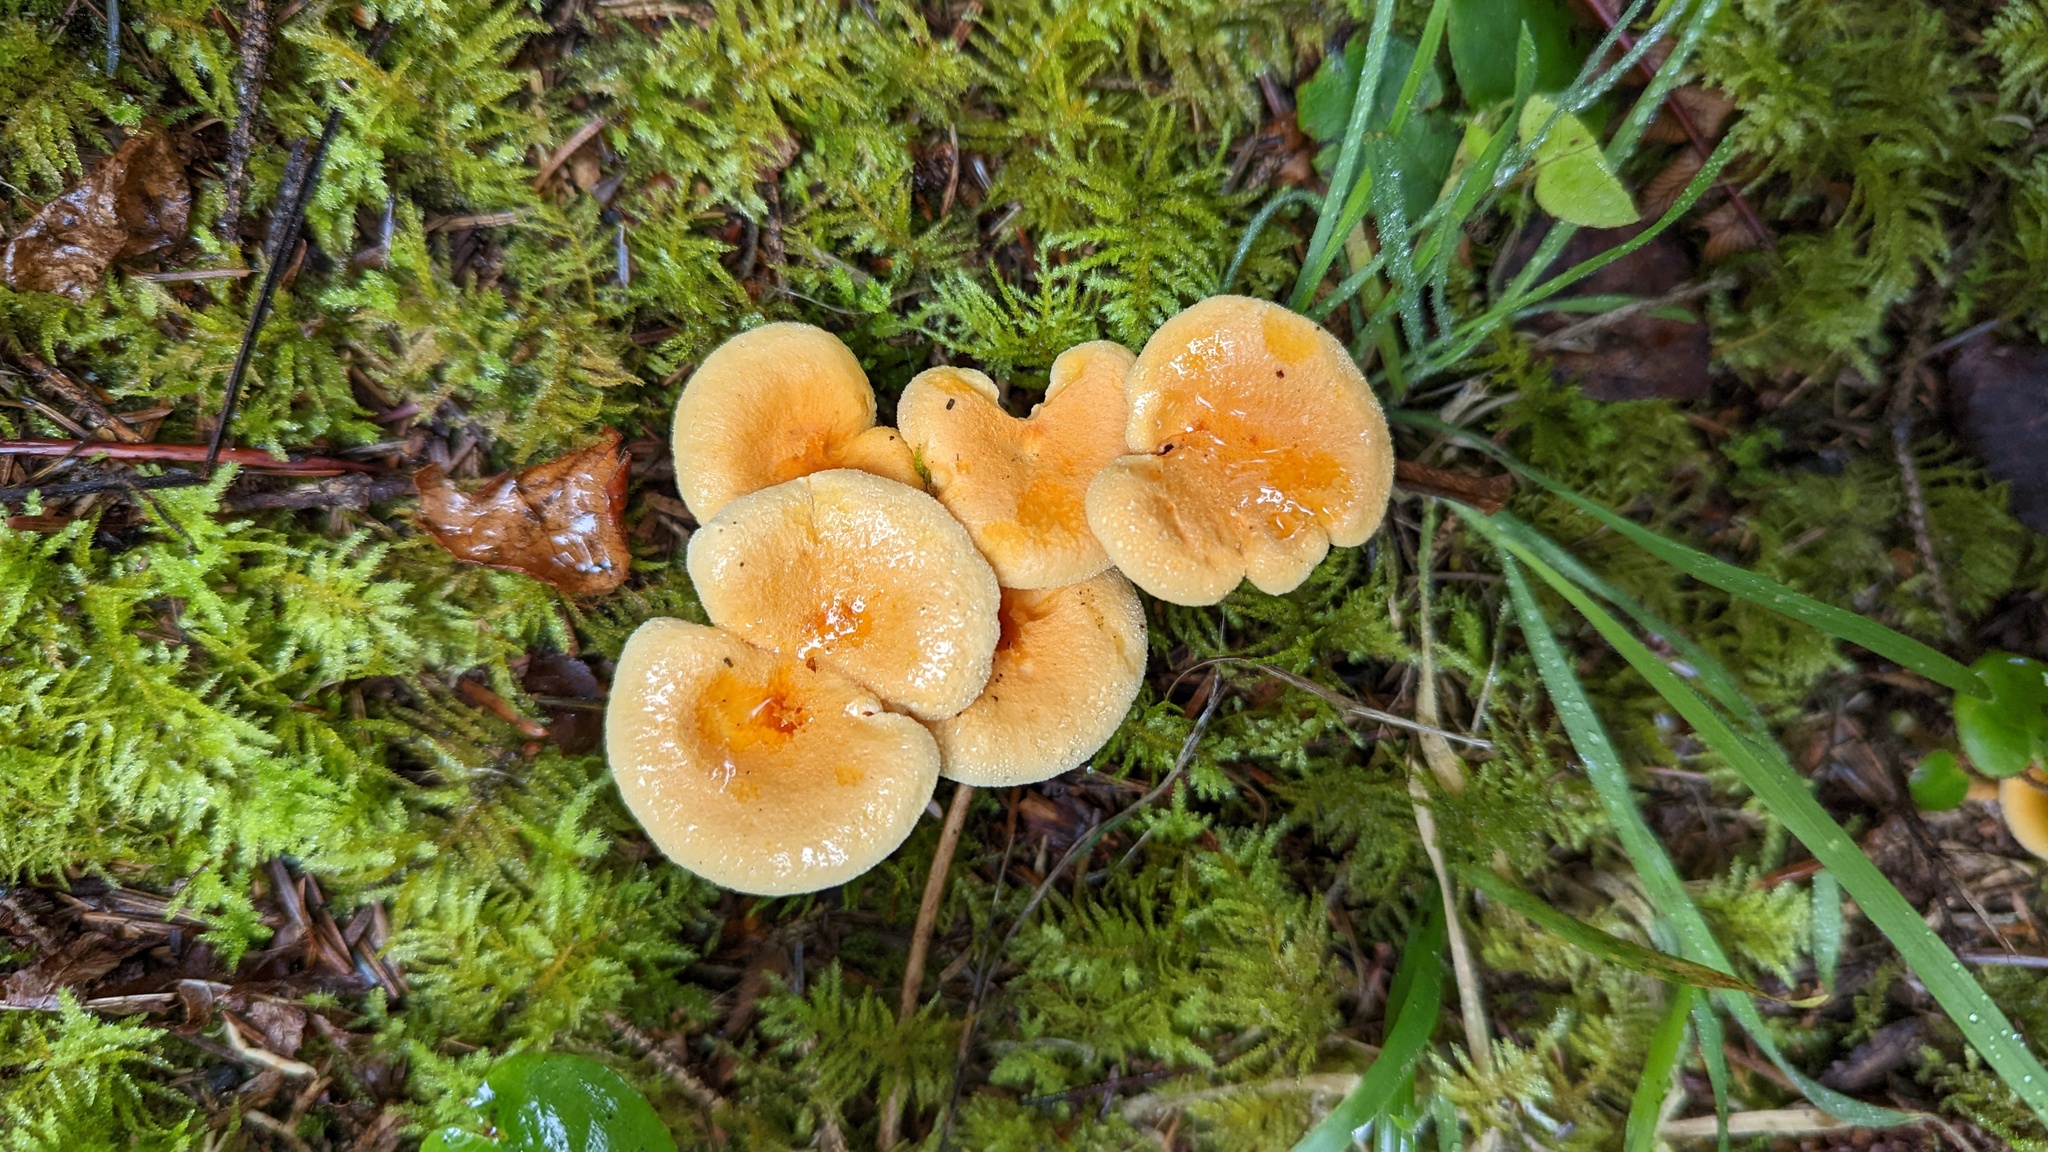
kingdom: Fungi
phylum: Basidiomycota
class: Agaricomycetes
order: Boletales
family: Hygrophoropsidaceae
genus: Hygrophoropsis
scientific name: Hygrophoropsis aurantiaca
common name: False chanterelle
